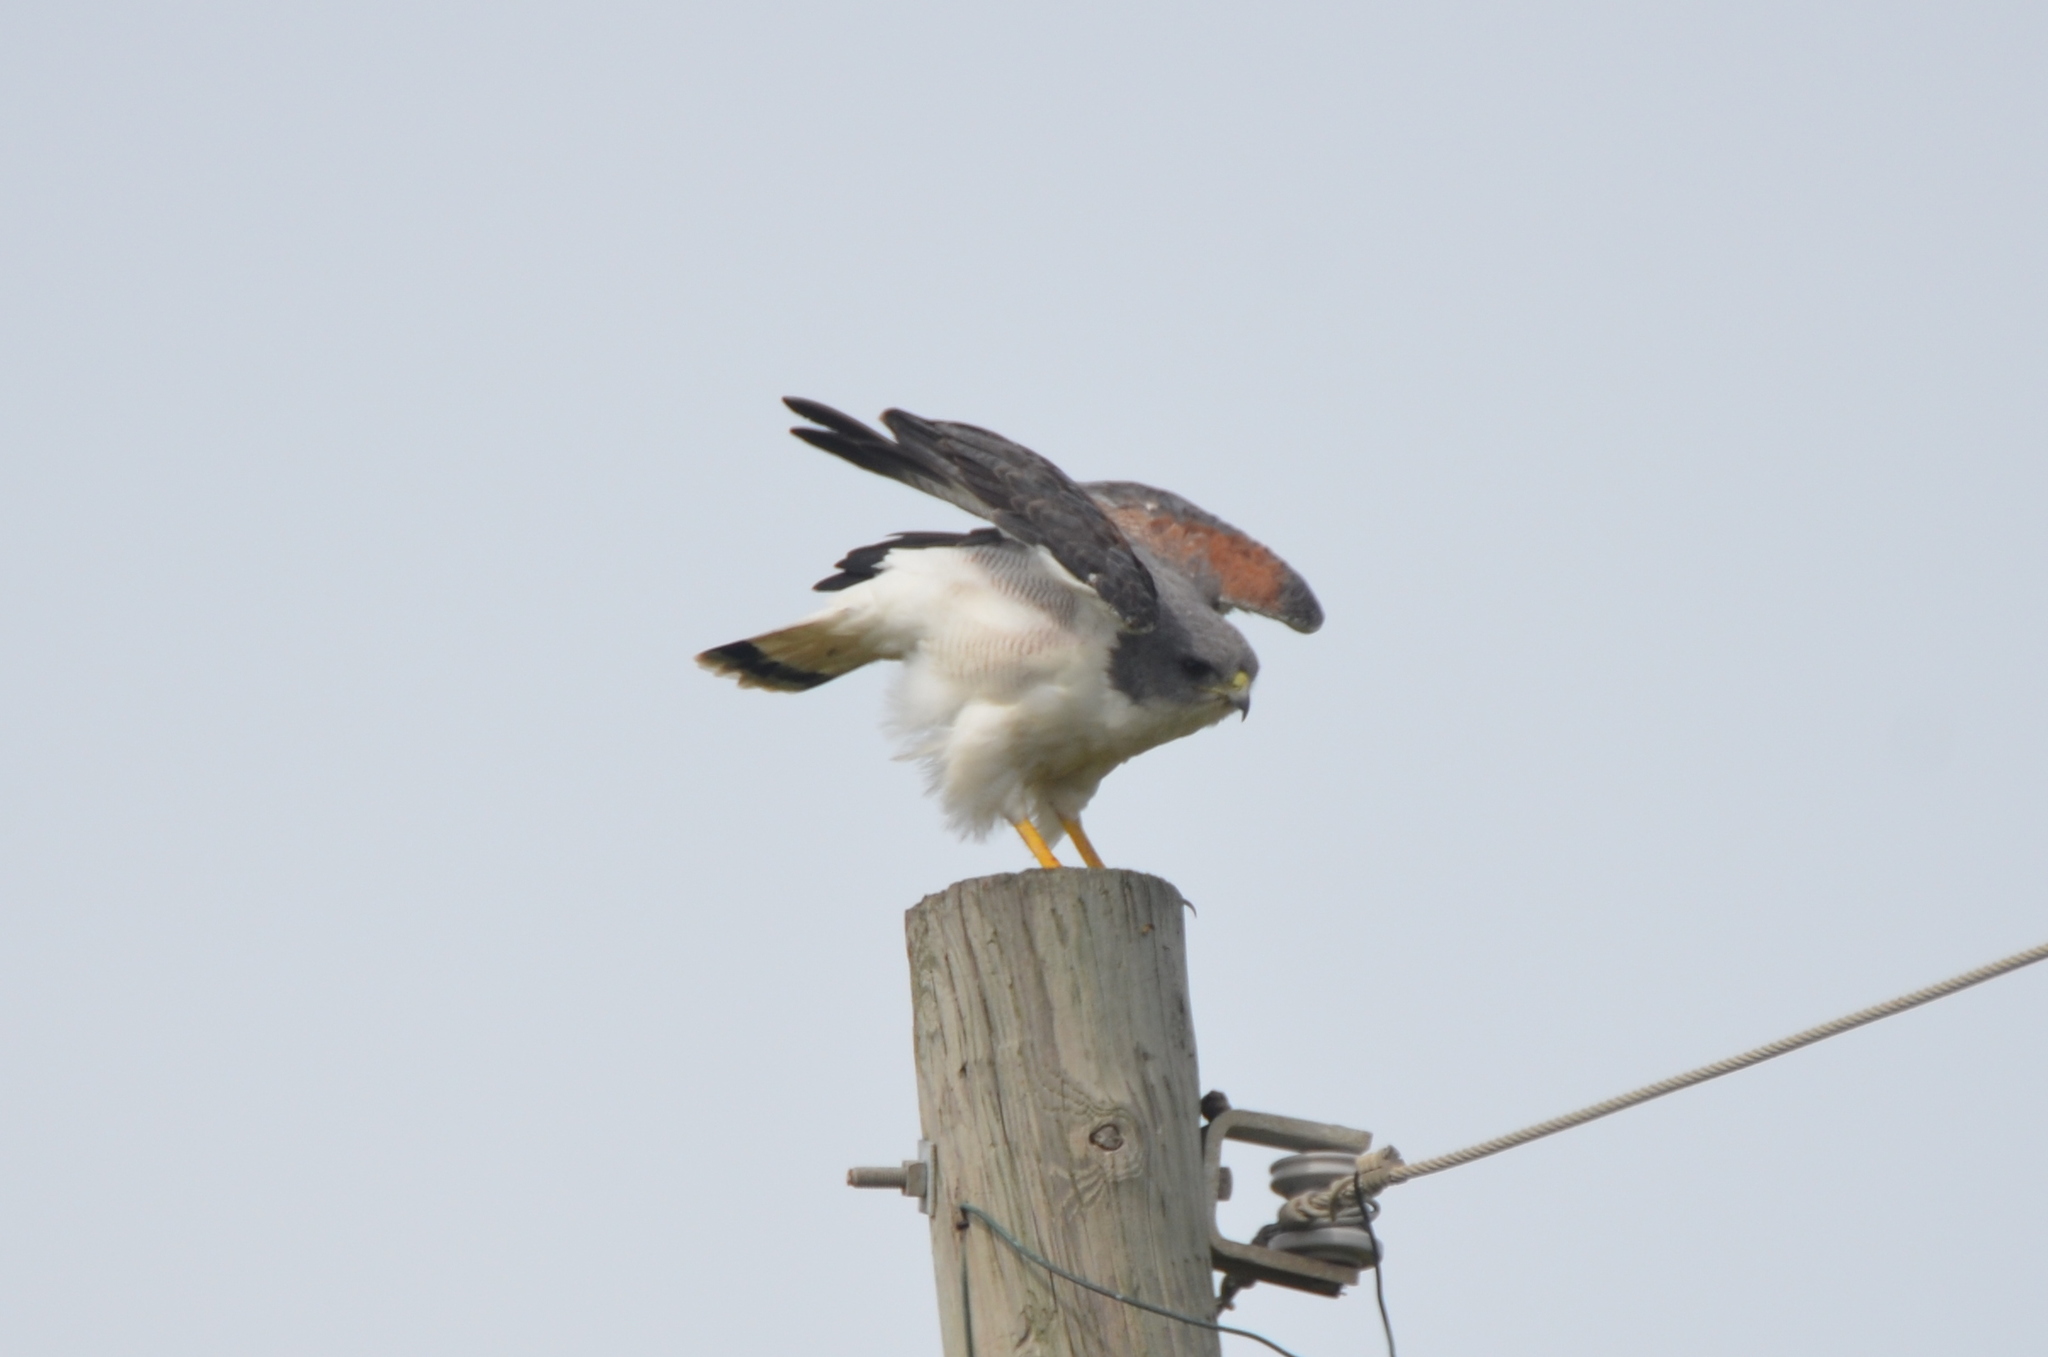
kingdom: Animalia
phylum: Chordata
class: Aves
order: Accipitriformes
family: Accipitridae
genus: Buteo
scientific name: Buteo albicaudatus
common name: White-tailed hawk
